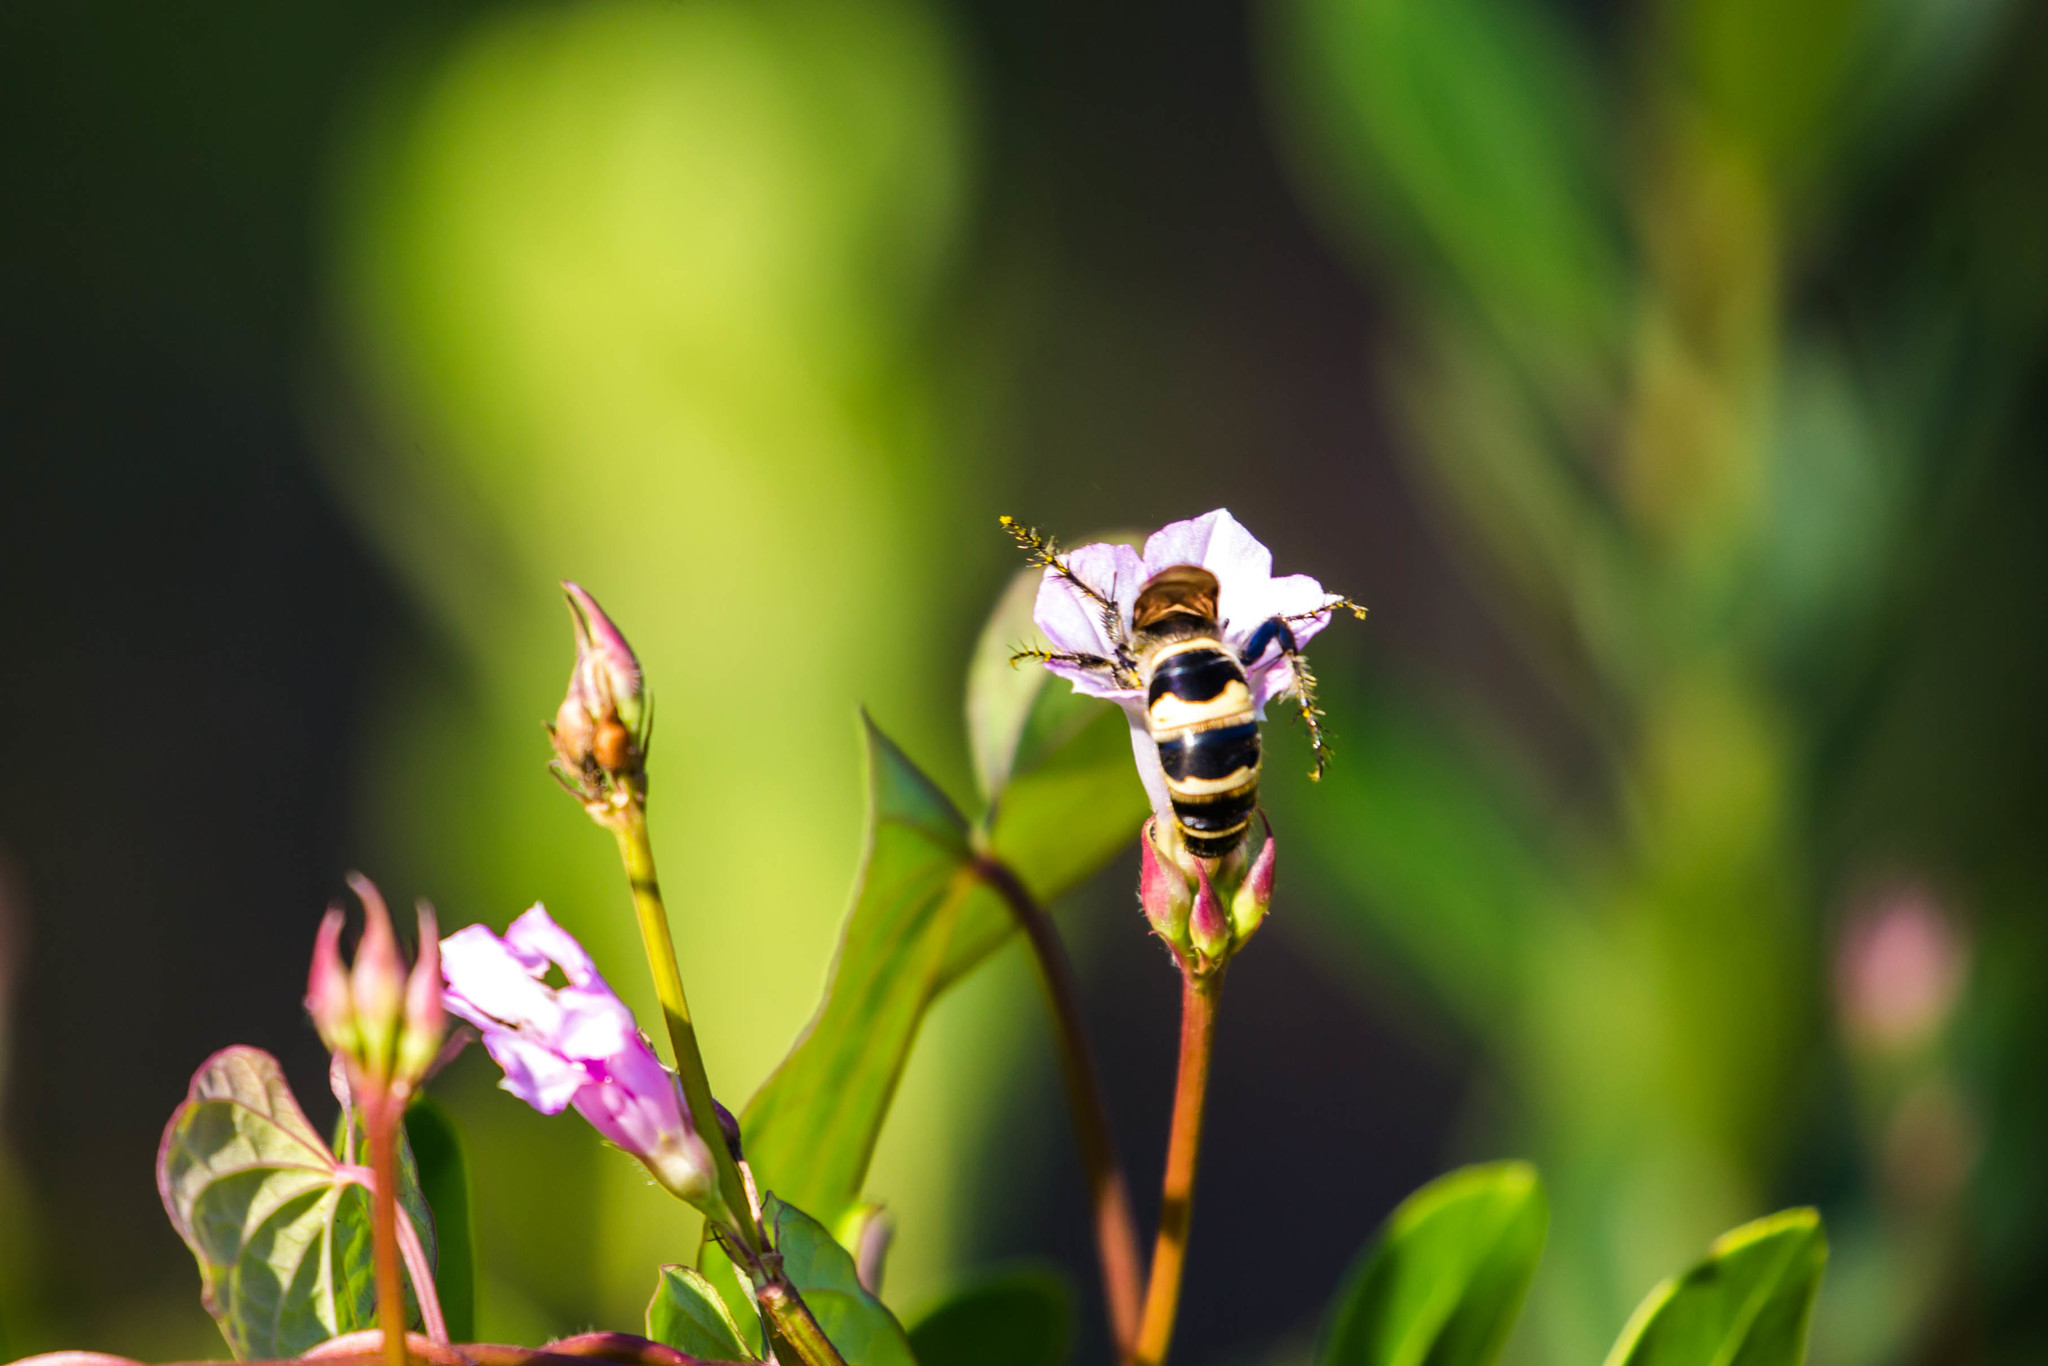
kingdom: Animalia
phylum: Arthropoda
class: Insecta
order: Hymenoptera
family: Scoliidae
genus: Dielis
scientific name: Dielis
